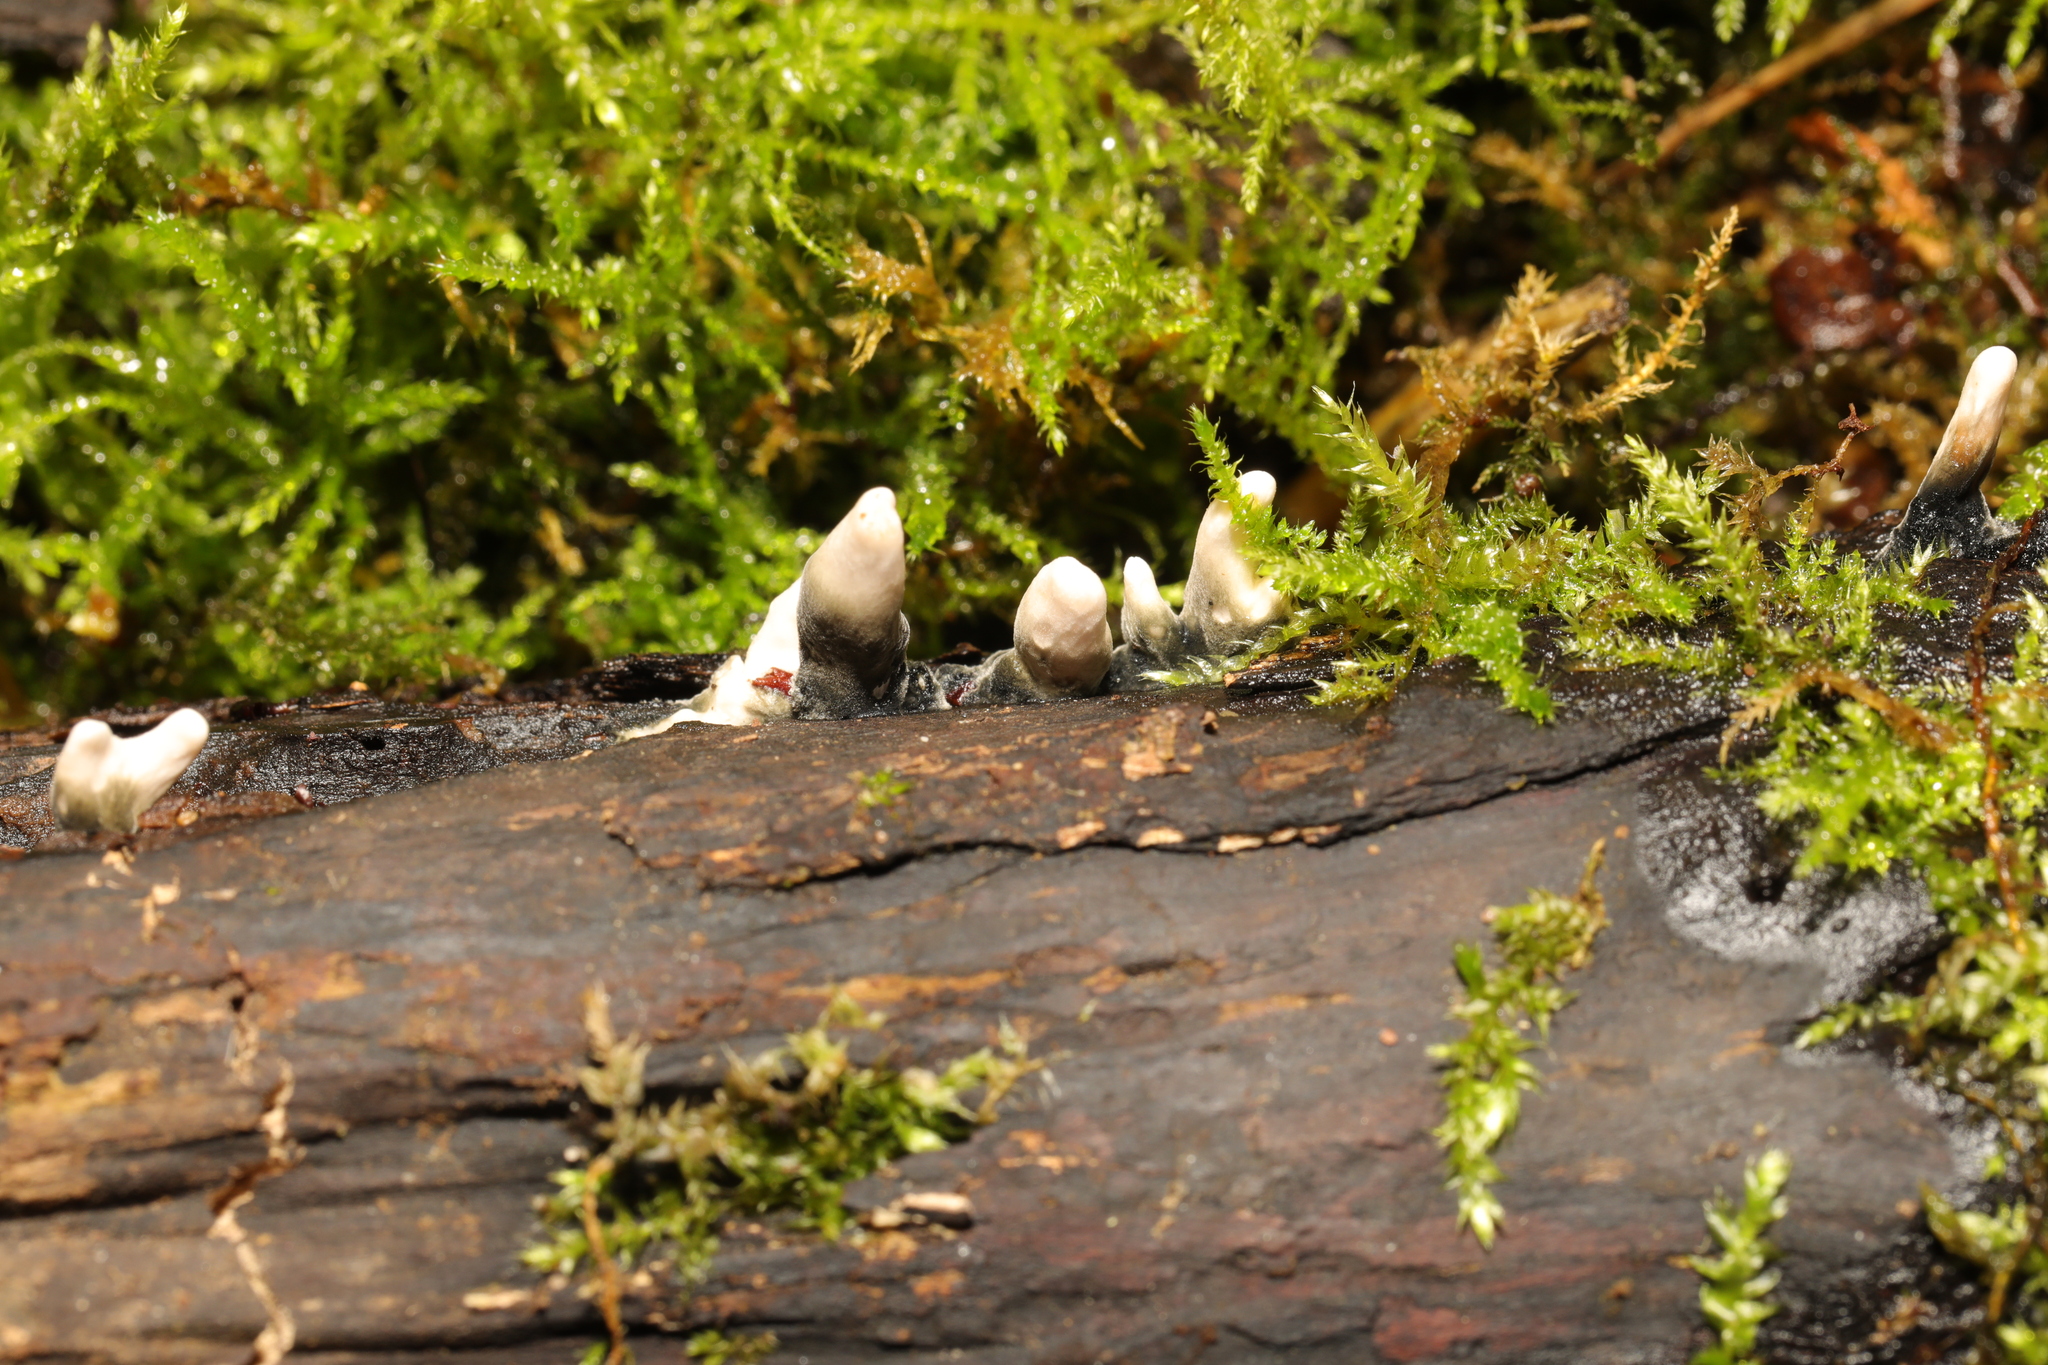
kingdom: Fungi
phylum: Ascomycota
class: Sordariomycetes
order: Xylariales
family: Xylariaceae
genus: Xylaria
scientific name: Xylaria hypoxylon
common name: Candle-snuff fungus
